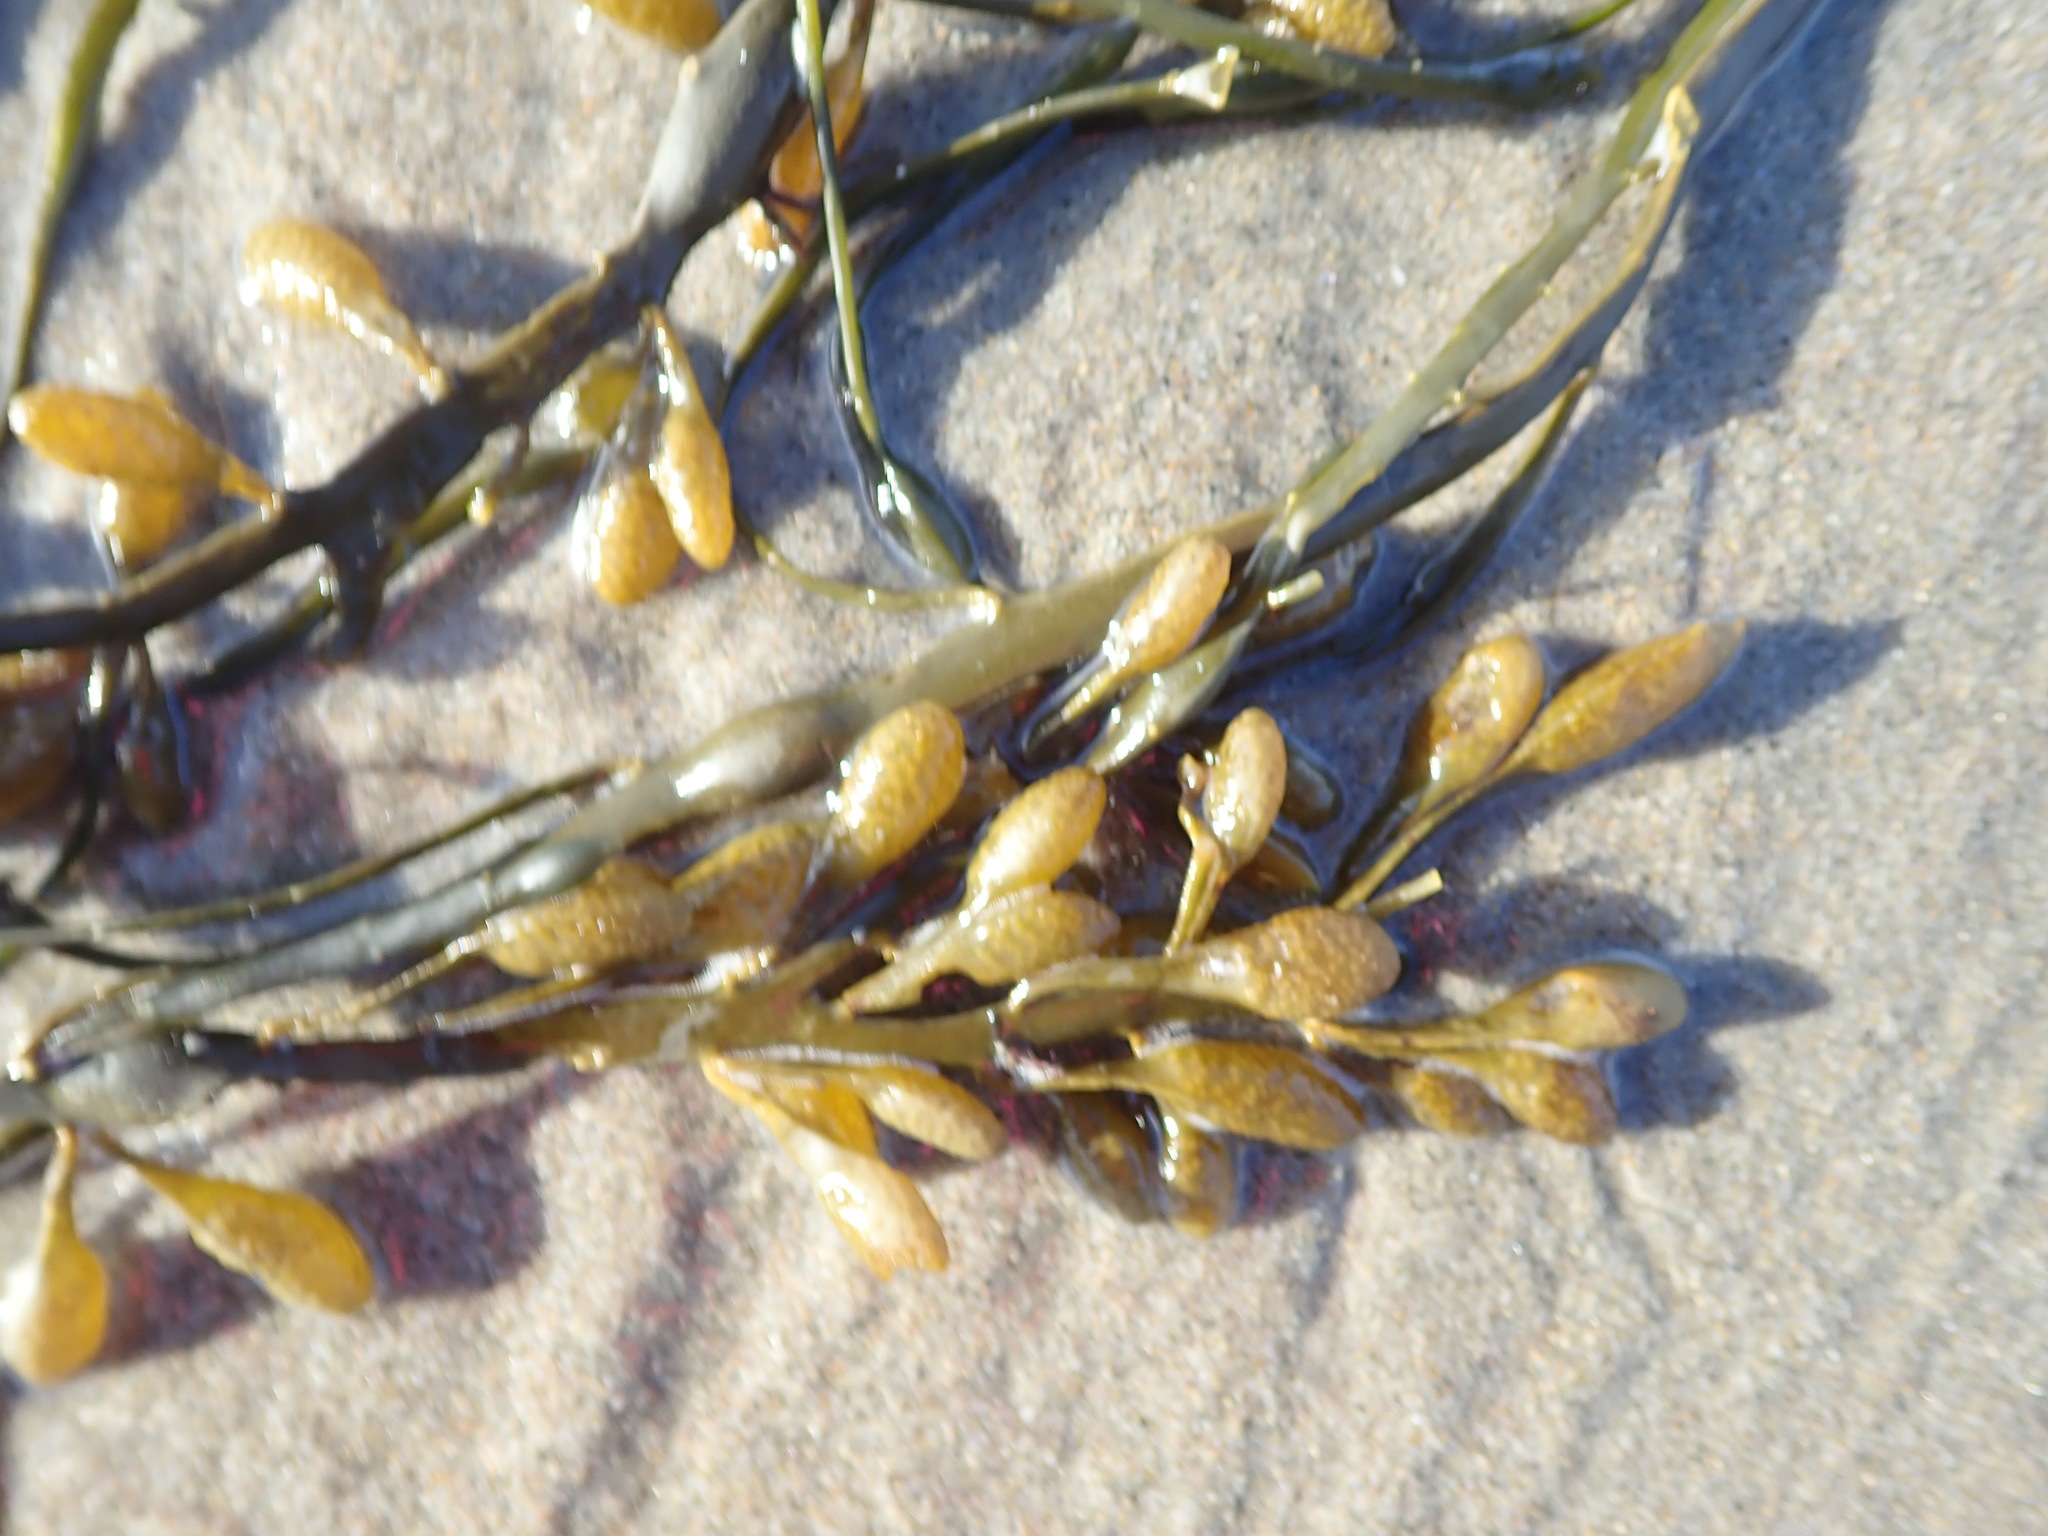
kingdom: Chromista
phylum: Ochrophyta
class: Phaeophyceae
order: Fucales
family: Fucaceae
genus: Ascophyllum
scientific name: Ascophyllum nodosum
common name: Knotted wrack
